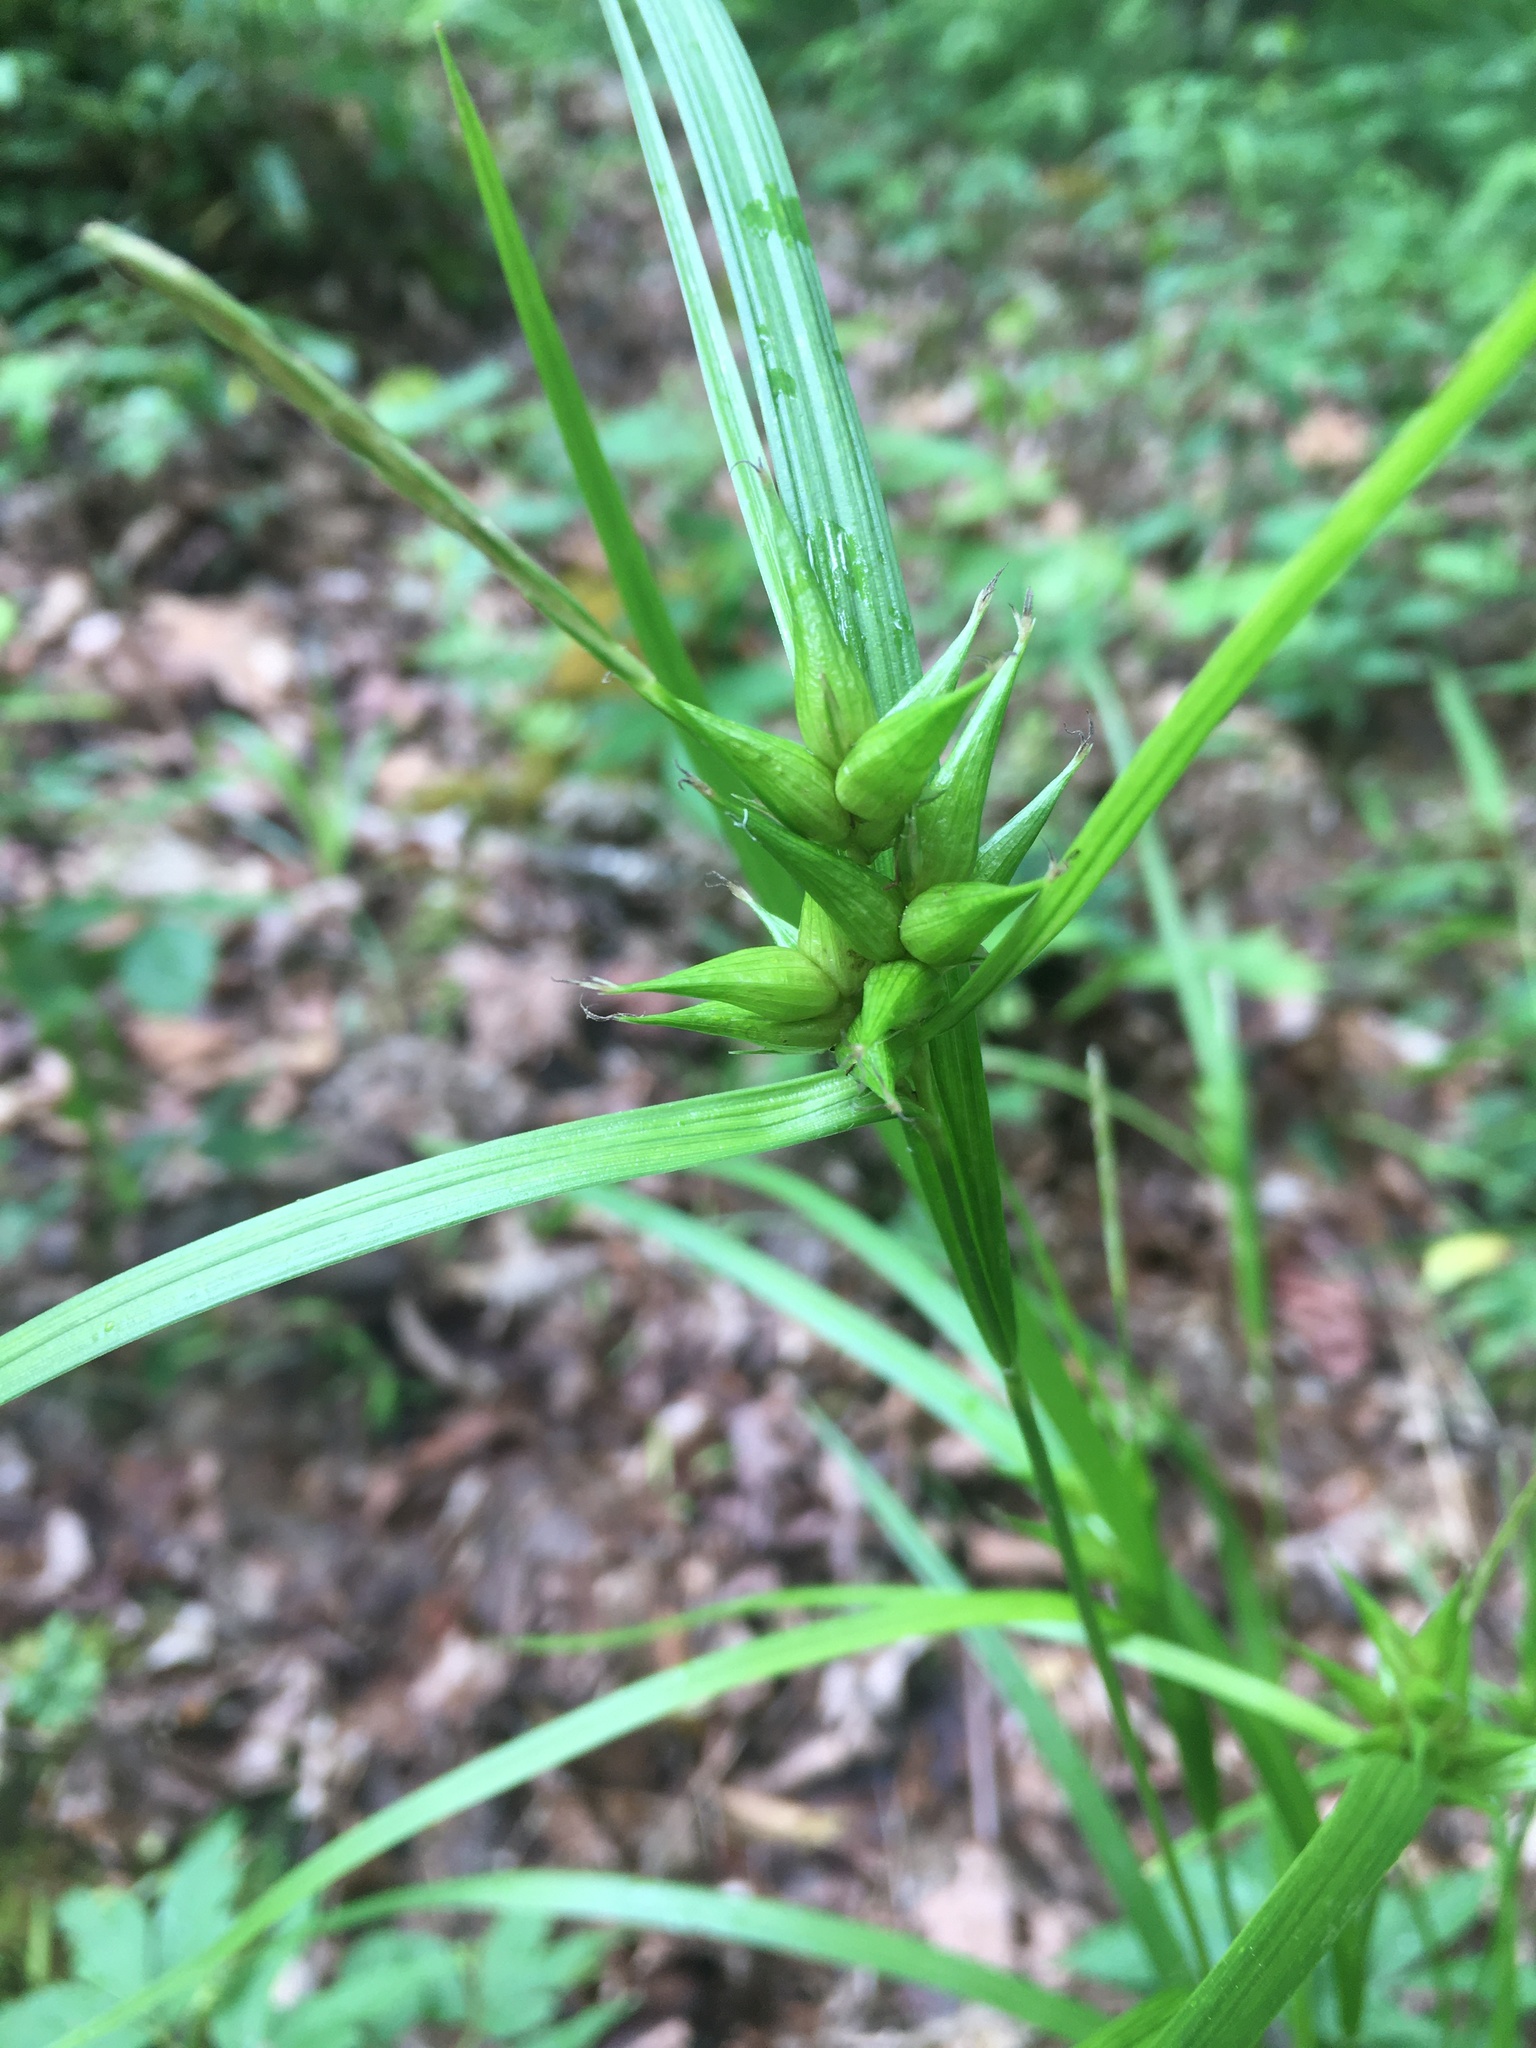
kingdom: Plantae
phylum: Tracheophyta
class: Liliopsida
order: Poales
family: Cyperaceae
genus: Carex
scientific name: Carex intumescens
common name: Greater bladder sedge
